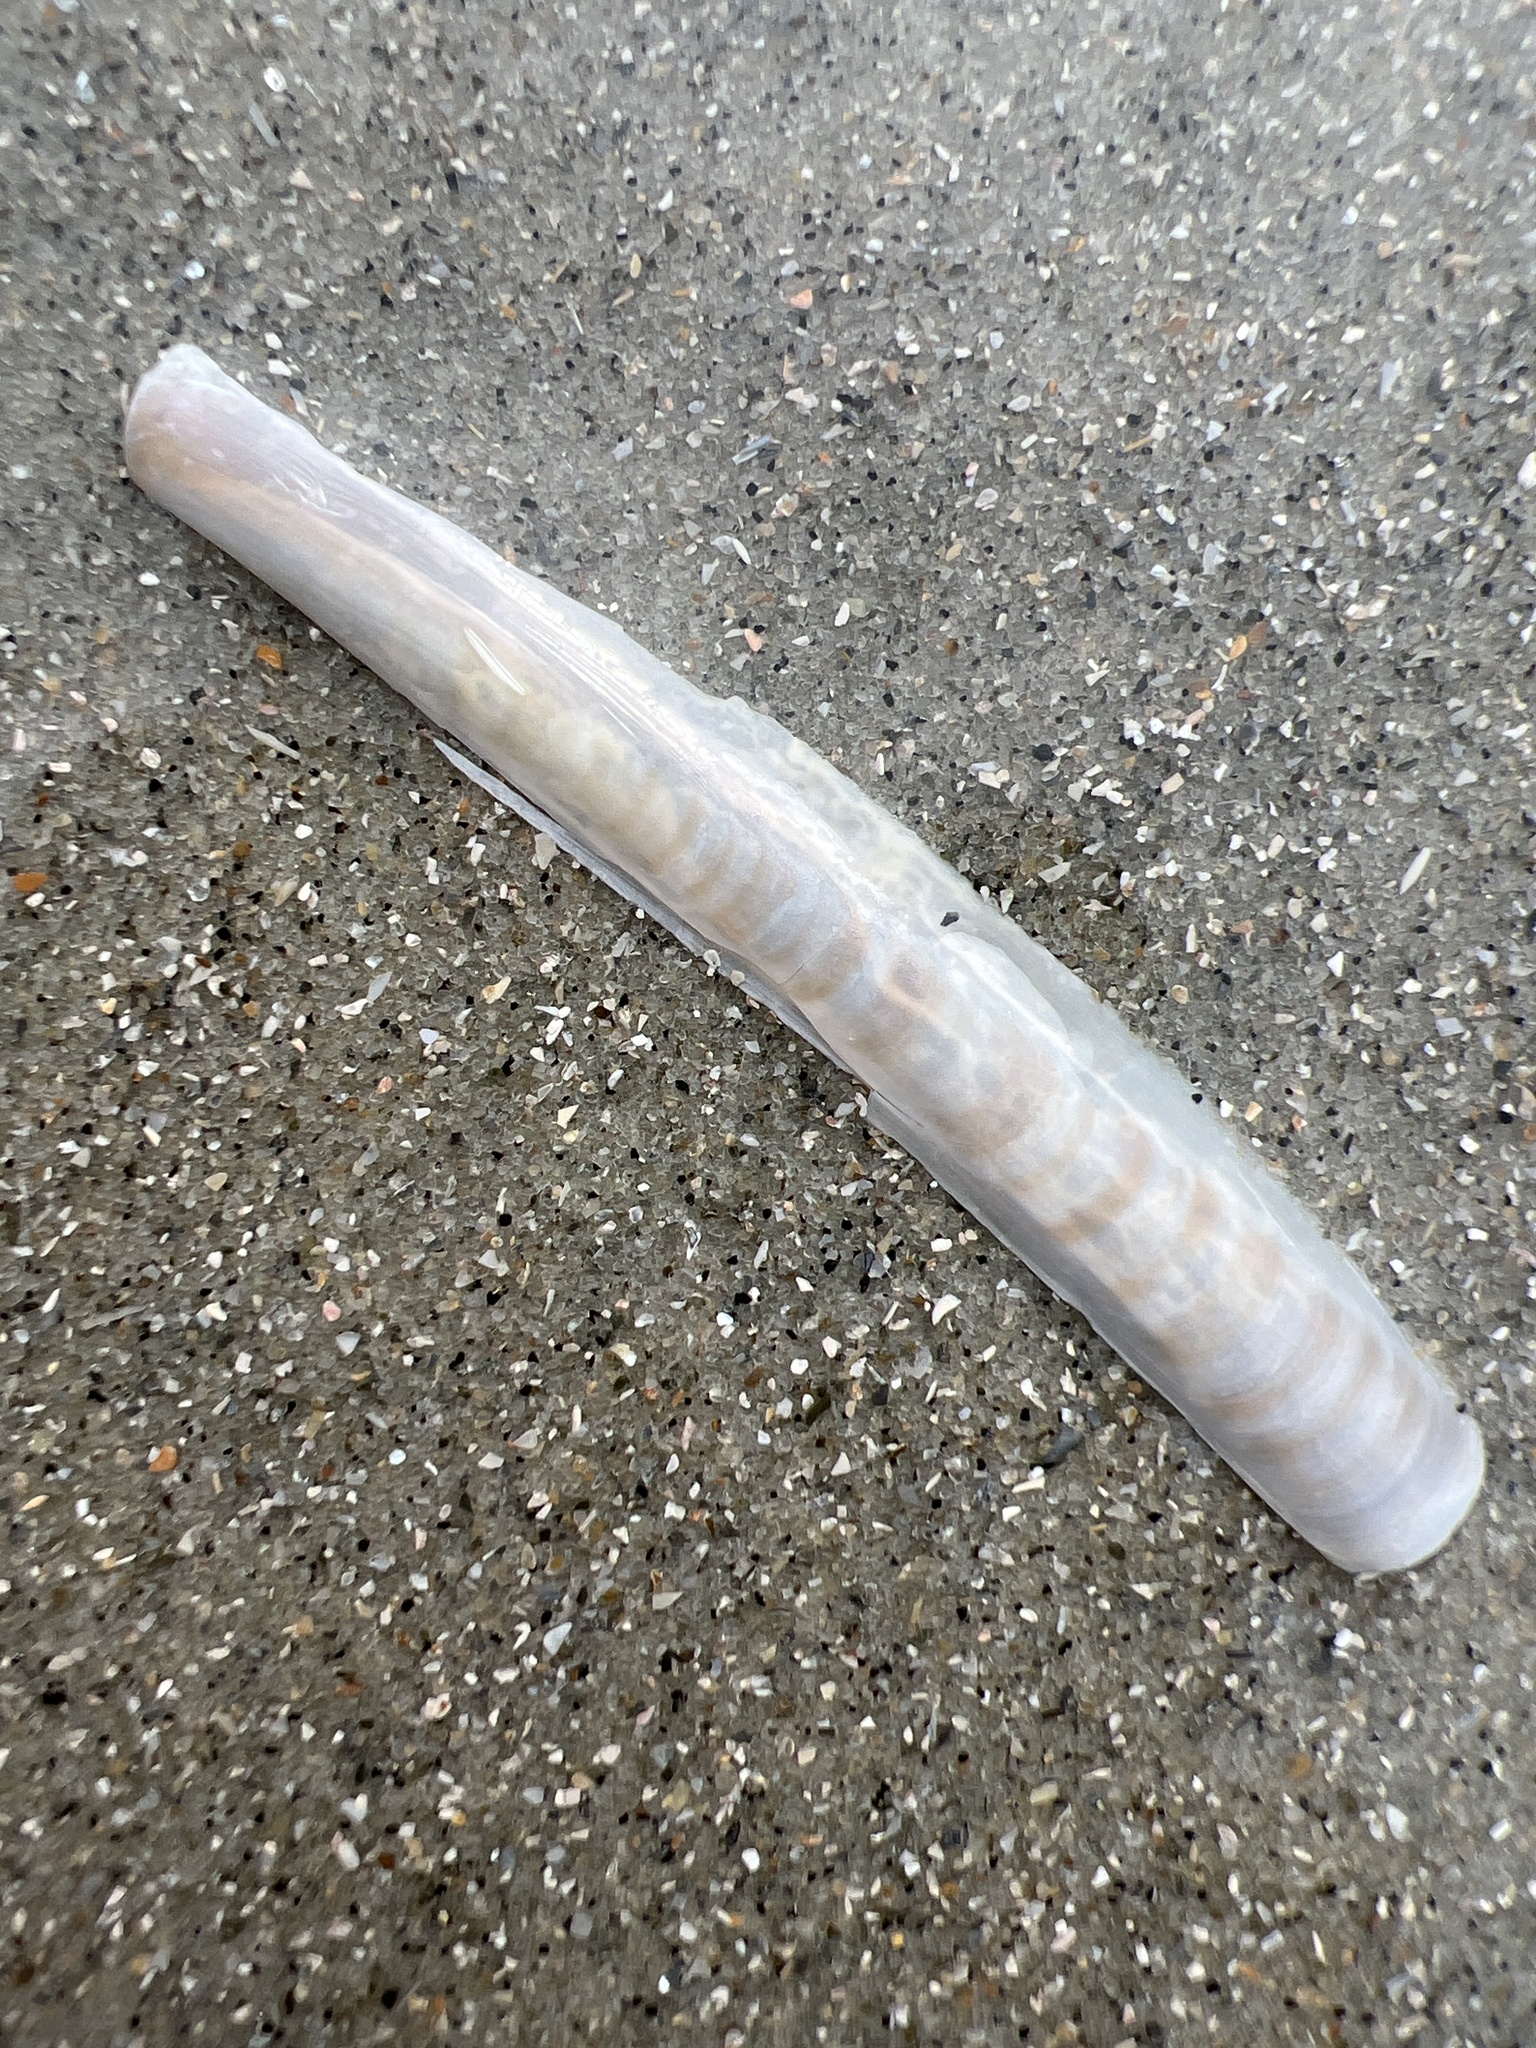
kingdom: Animalia
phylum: Mollusca
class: Bivalvia
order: Adapedonta
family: Pharidae
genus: Ensis
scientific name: Ensis leei
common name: American jack knife clam
